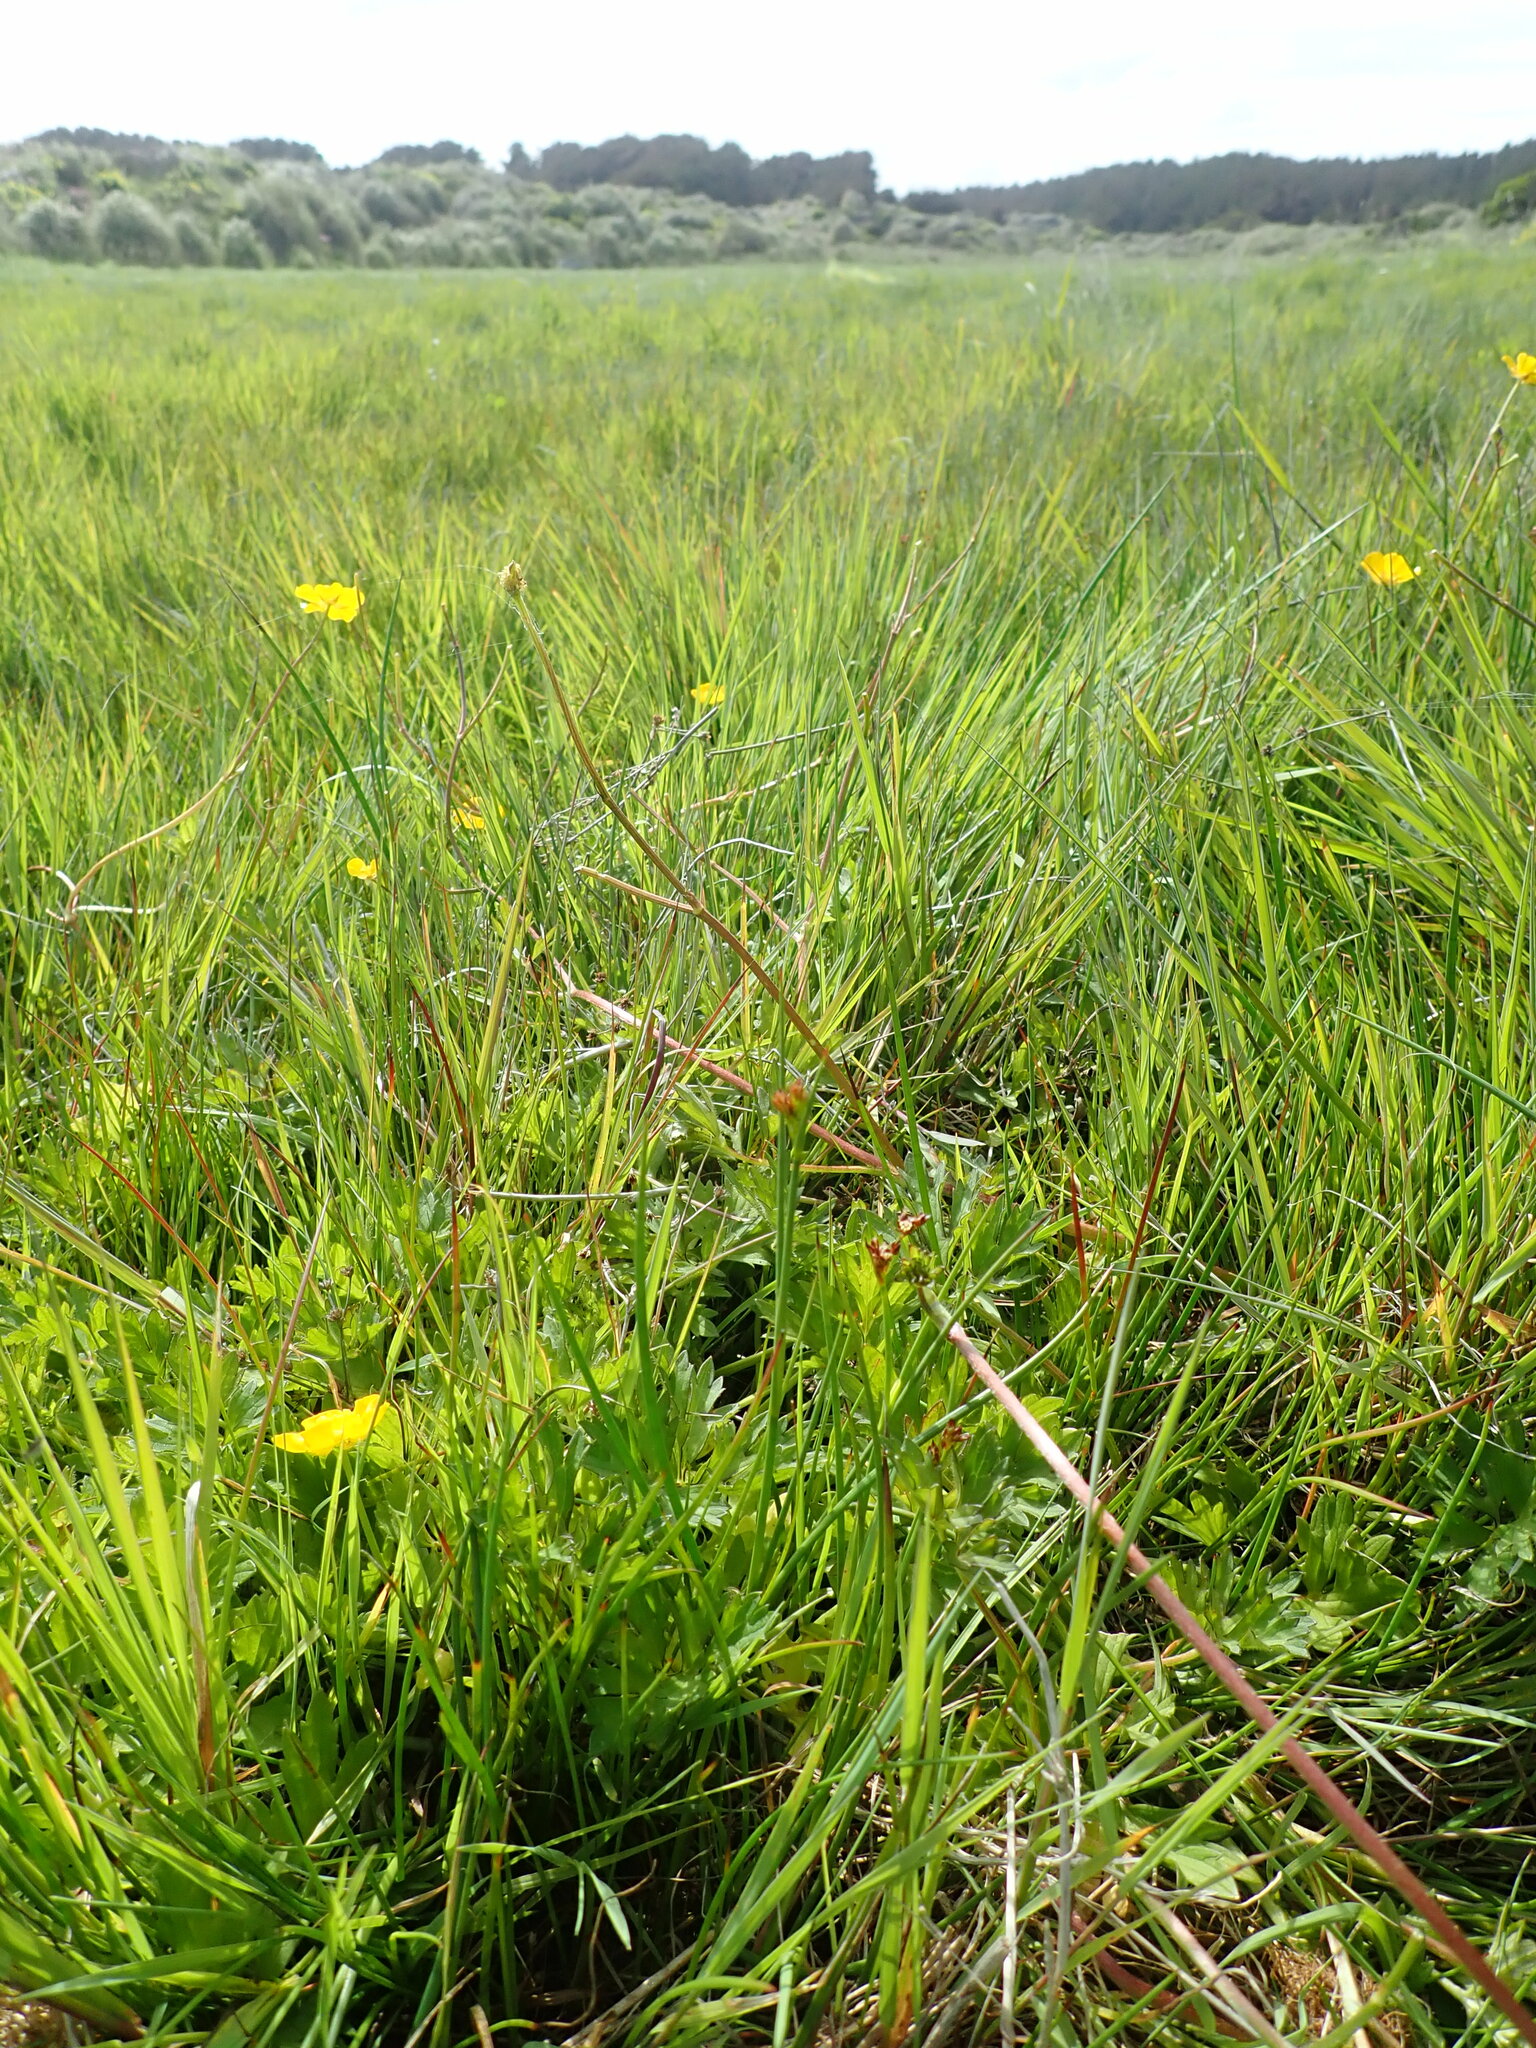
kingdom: Plantae
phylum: Tracheophyta
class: Magnoliopsida
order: Ranunculales
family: Ranunculaceae
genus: Ranunculus
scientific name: Ranunculus repens
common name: Creeping buttercup
